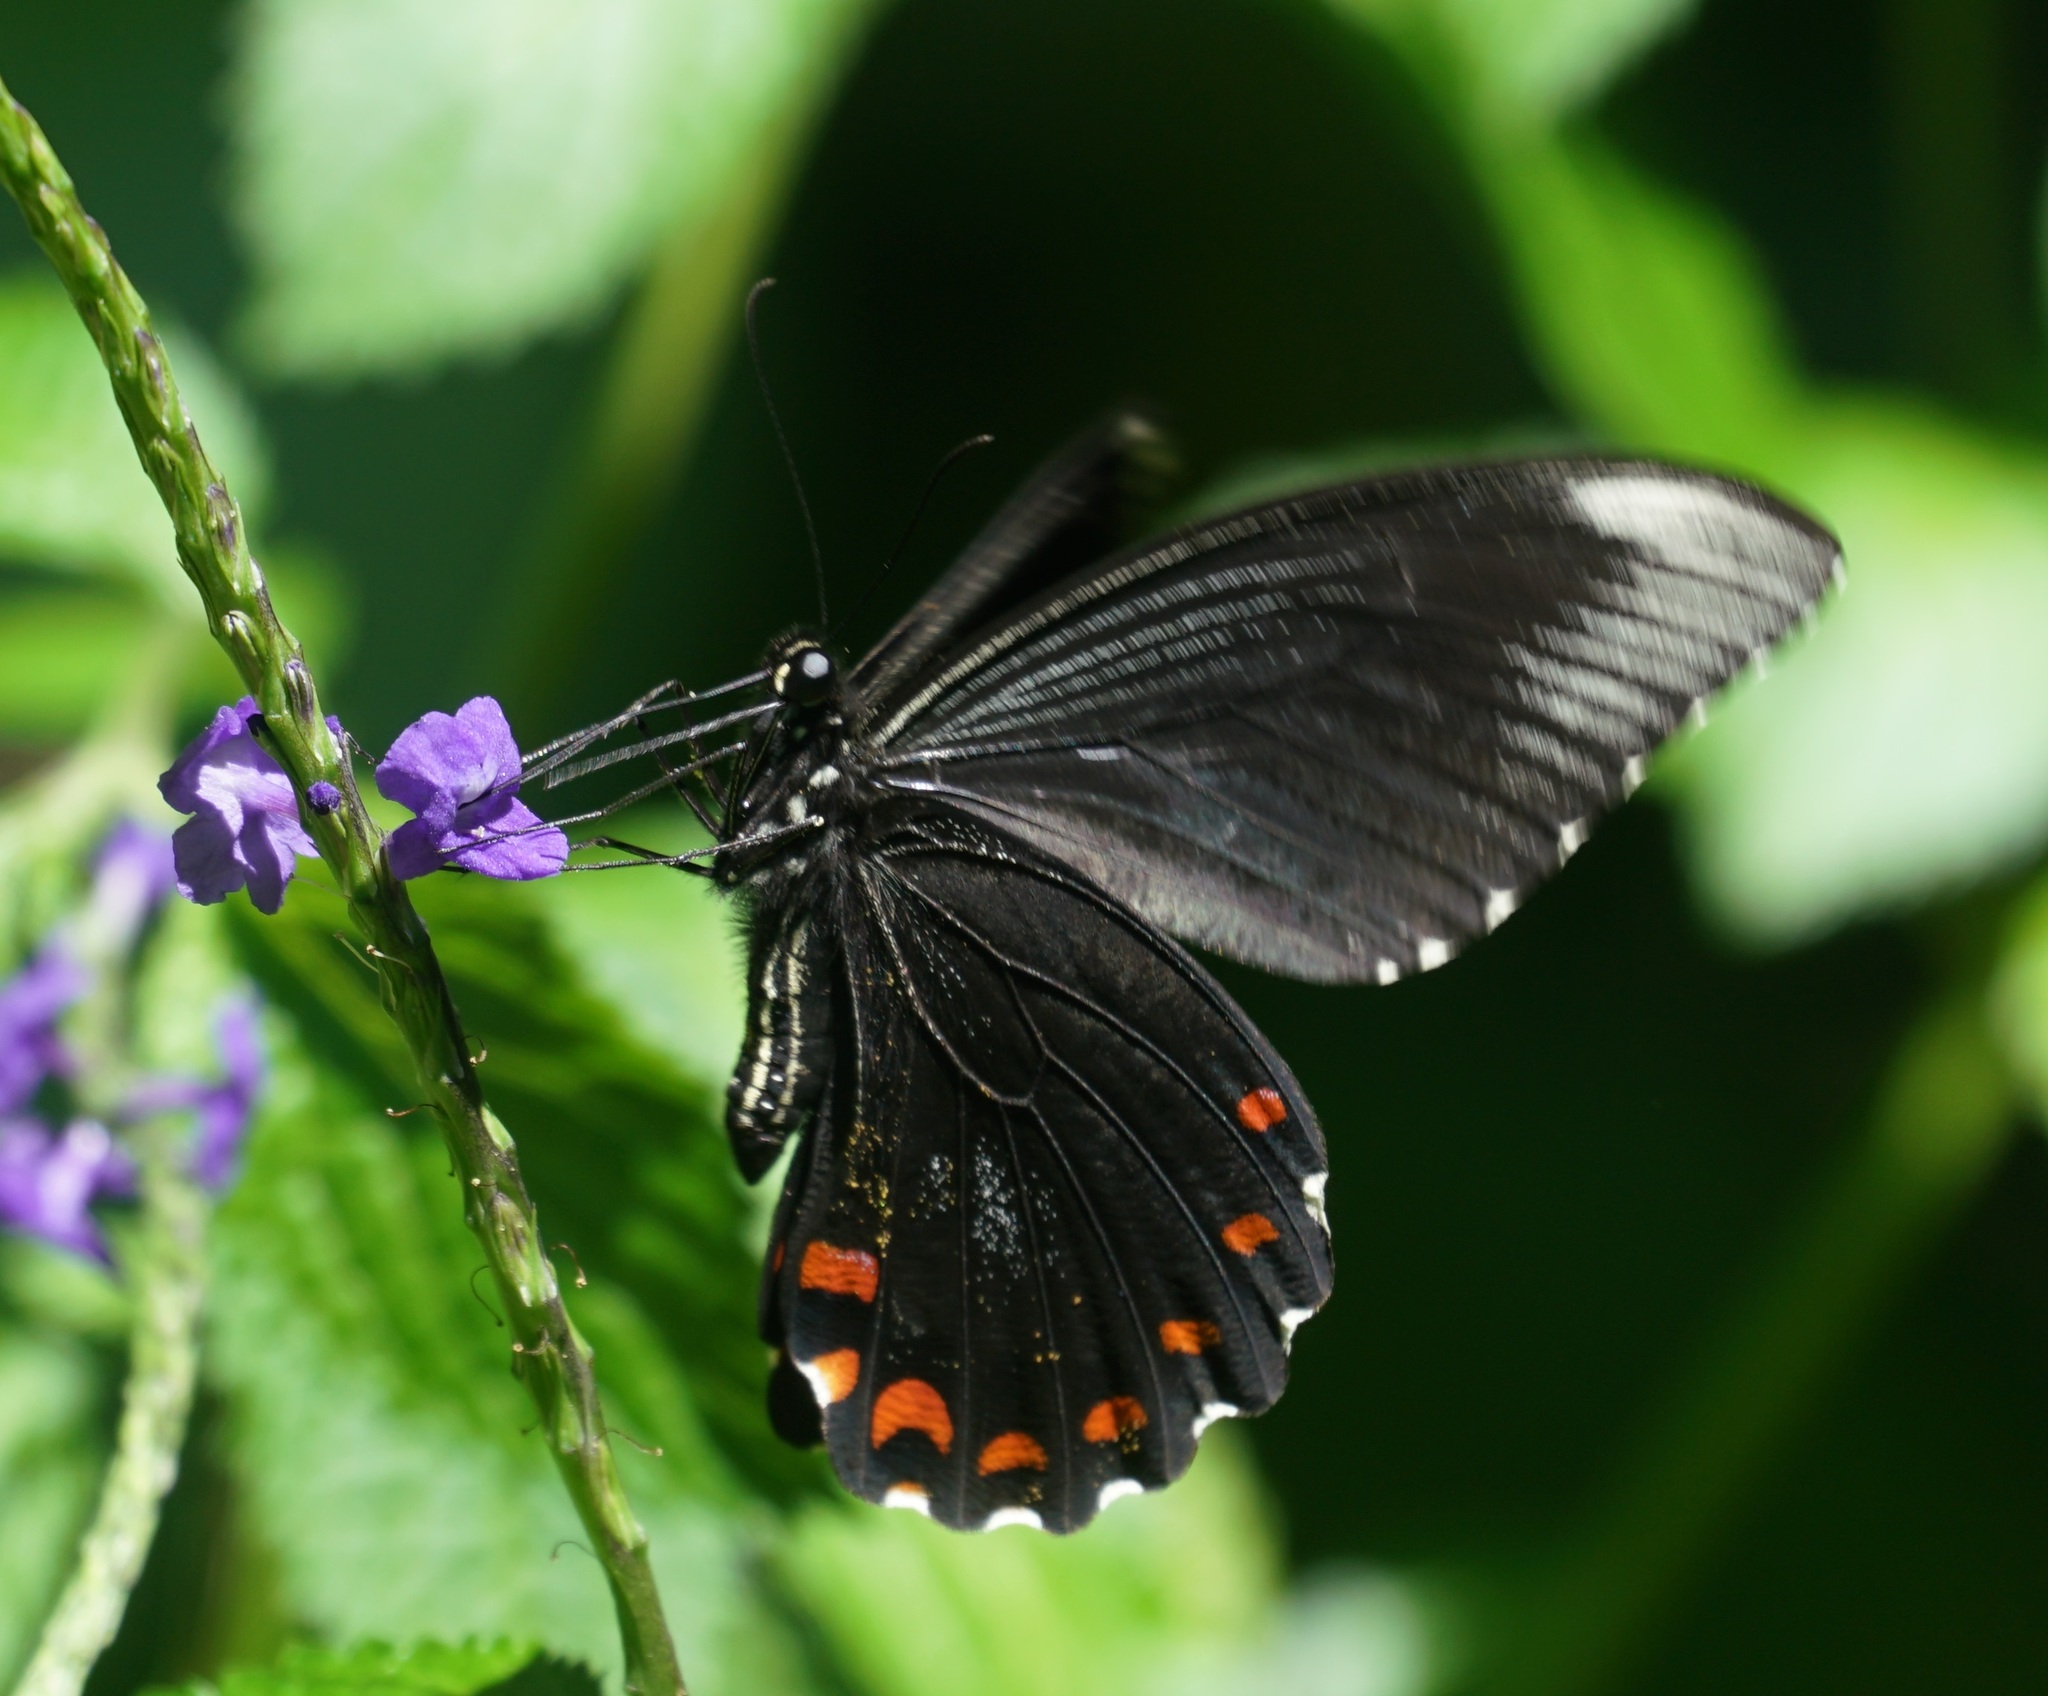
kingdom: Animalia
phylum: Arthropoda
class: Insecta
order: Lepidoptera
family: Papilionidae
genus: Papilio
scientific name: Papilio ambrax
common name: Ambrax butterfly
